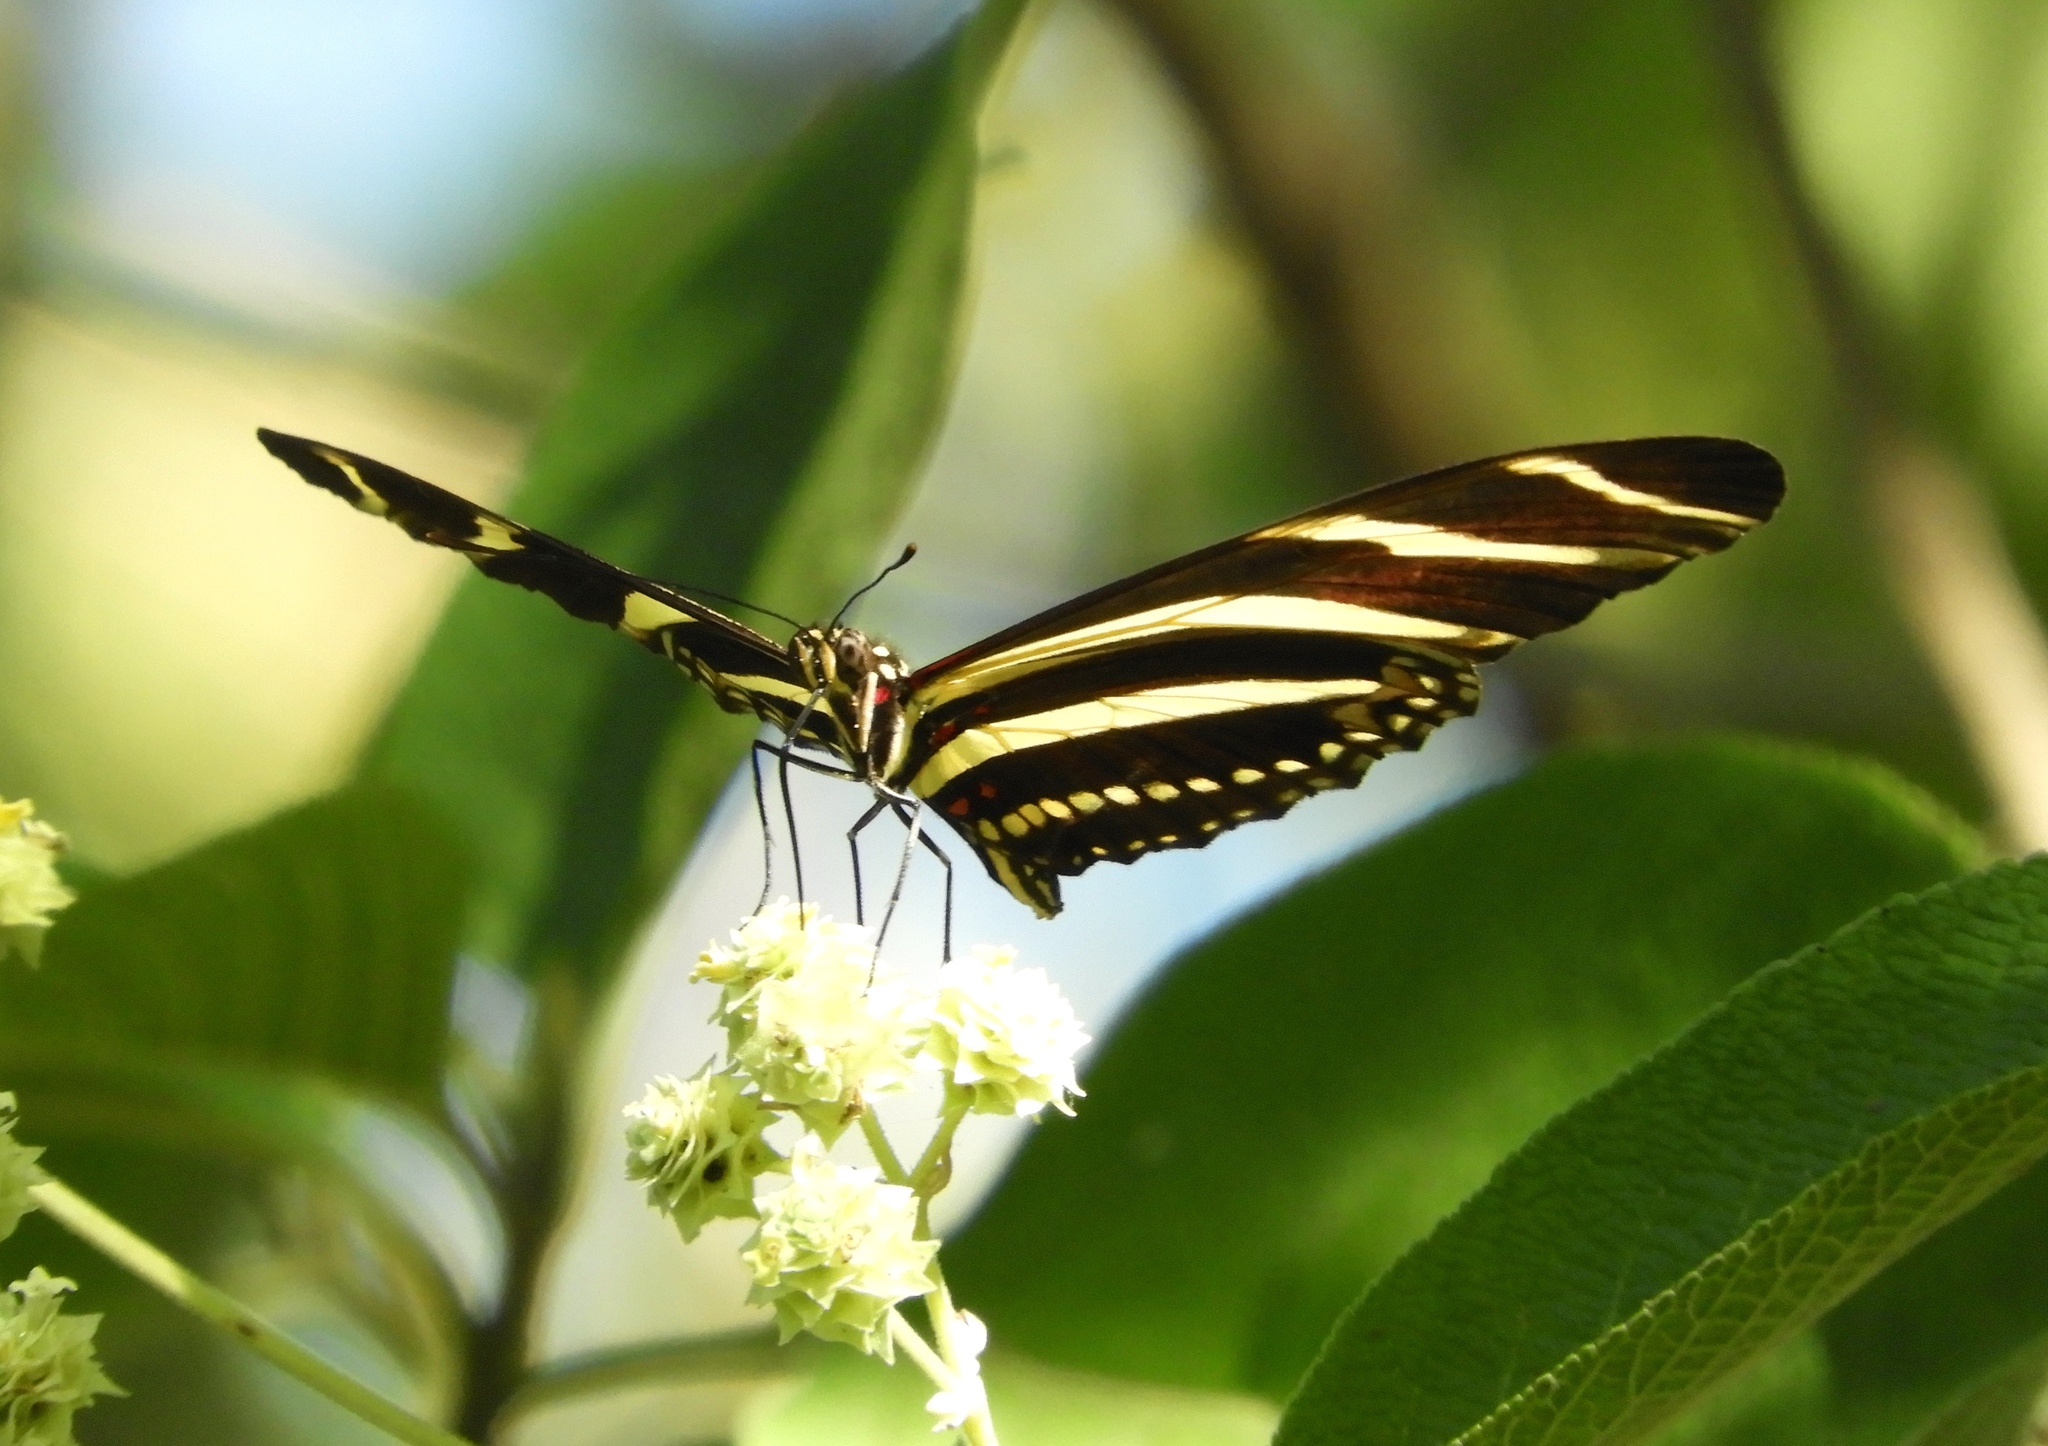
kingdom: Animalia
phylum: Arthropoda
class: Insecta
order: Lepidoptera
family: Nymphalidae
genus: Heliconius
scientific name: Heliconius charithonia
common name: Zebra long wing
